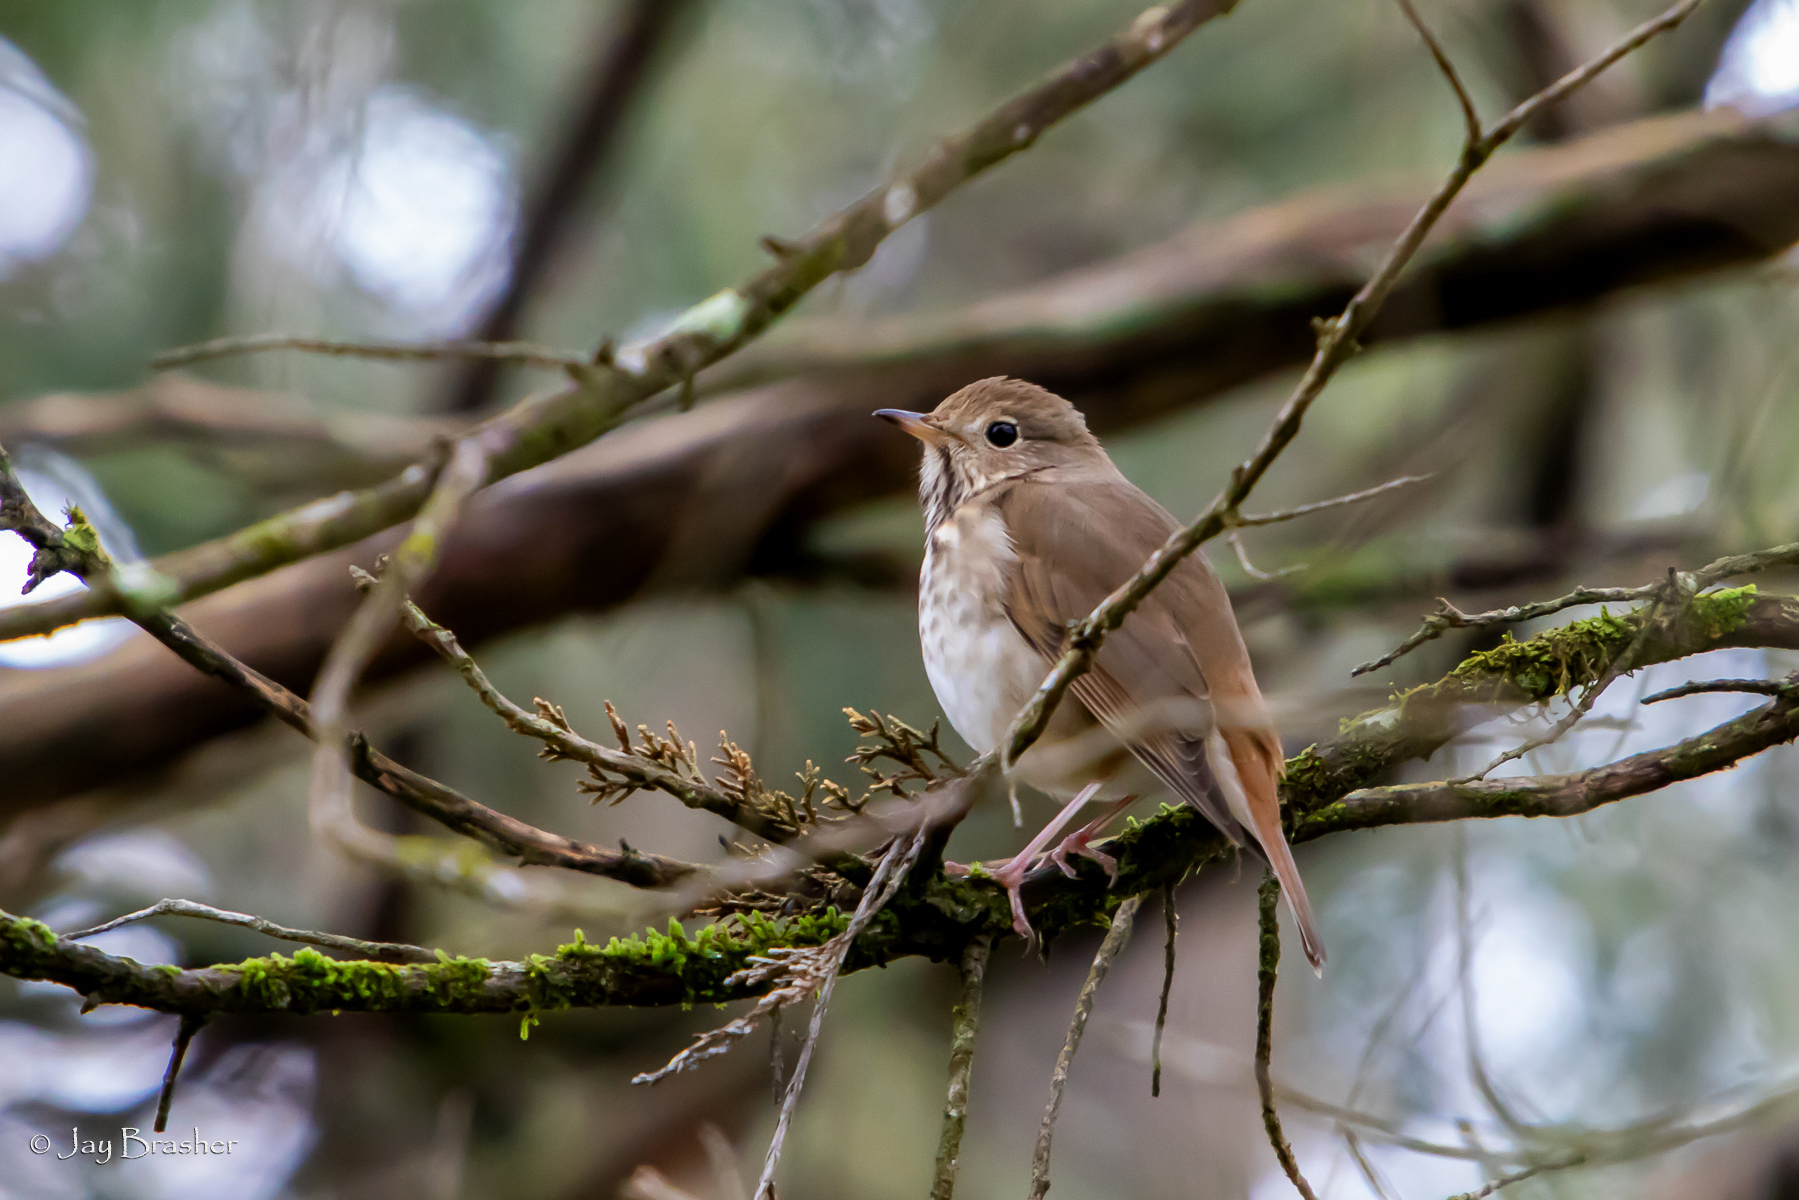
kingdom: Animalia
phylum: Chordata
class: Aves
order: Passeriformes
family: Turdidae
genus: Catharus
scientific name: Catharus guttatus
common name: Hermit thrush
